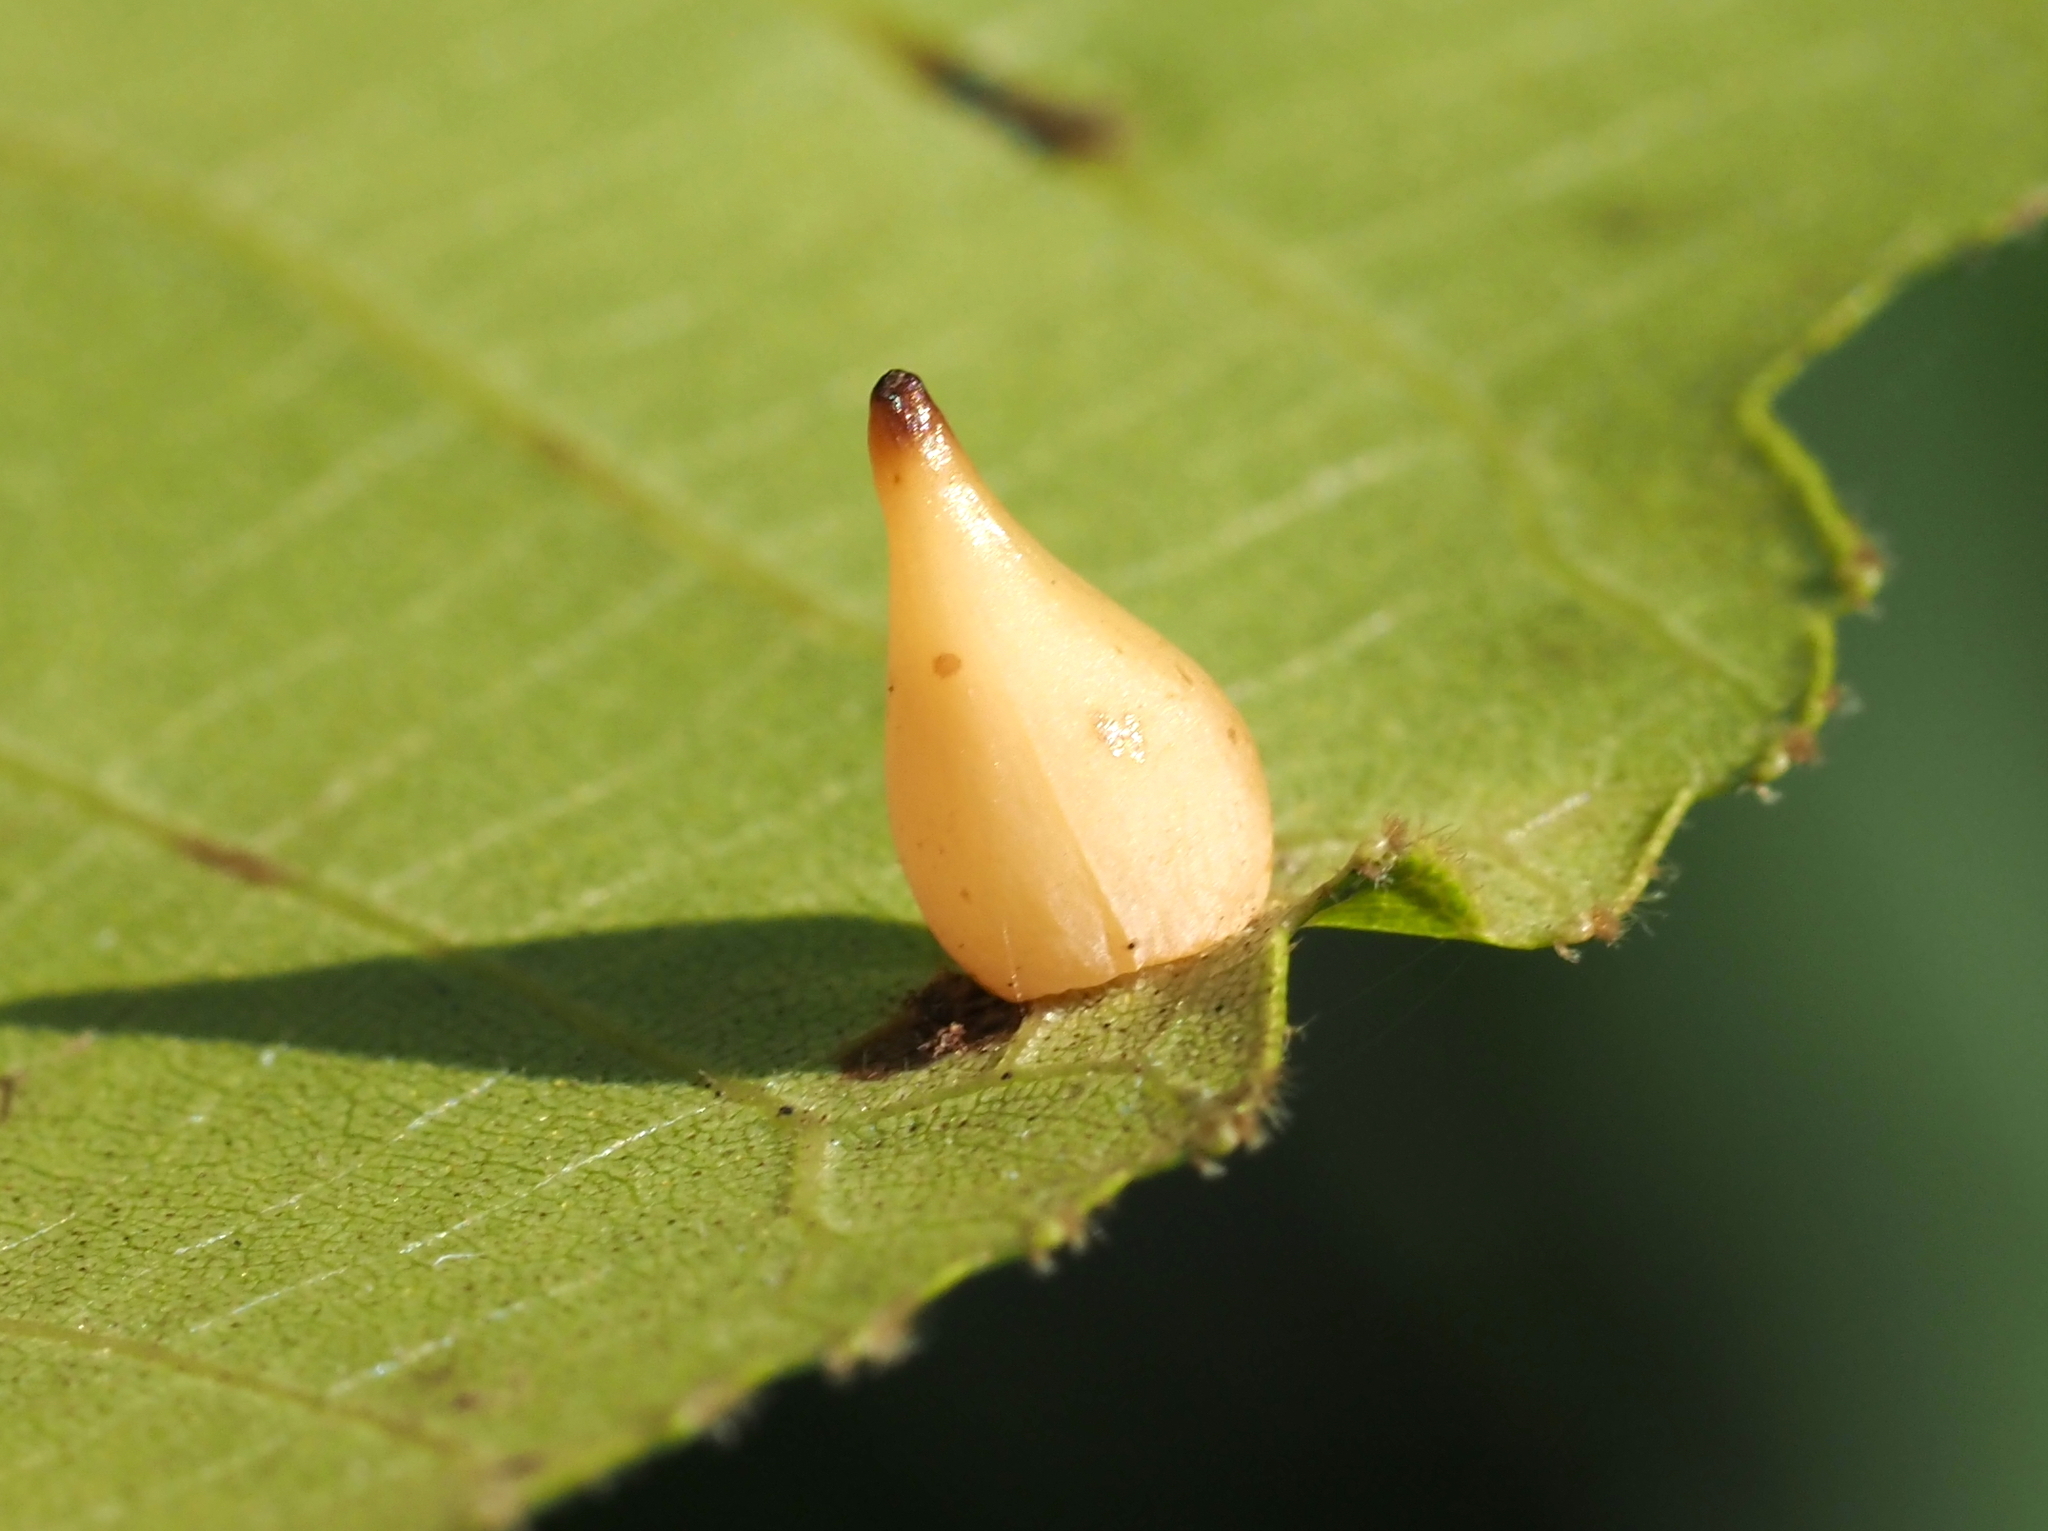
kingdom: Animalia
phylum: Arthropoda
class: Insecta
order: Diptera
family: Cecidomyiidae
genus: Caryomyia
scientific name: Caryomyia caryaecola
